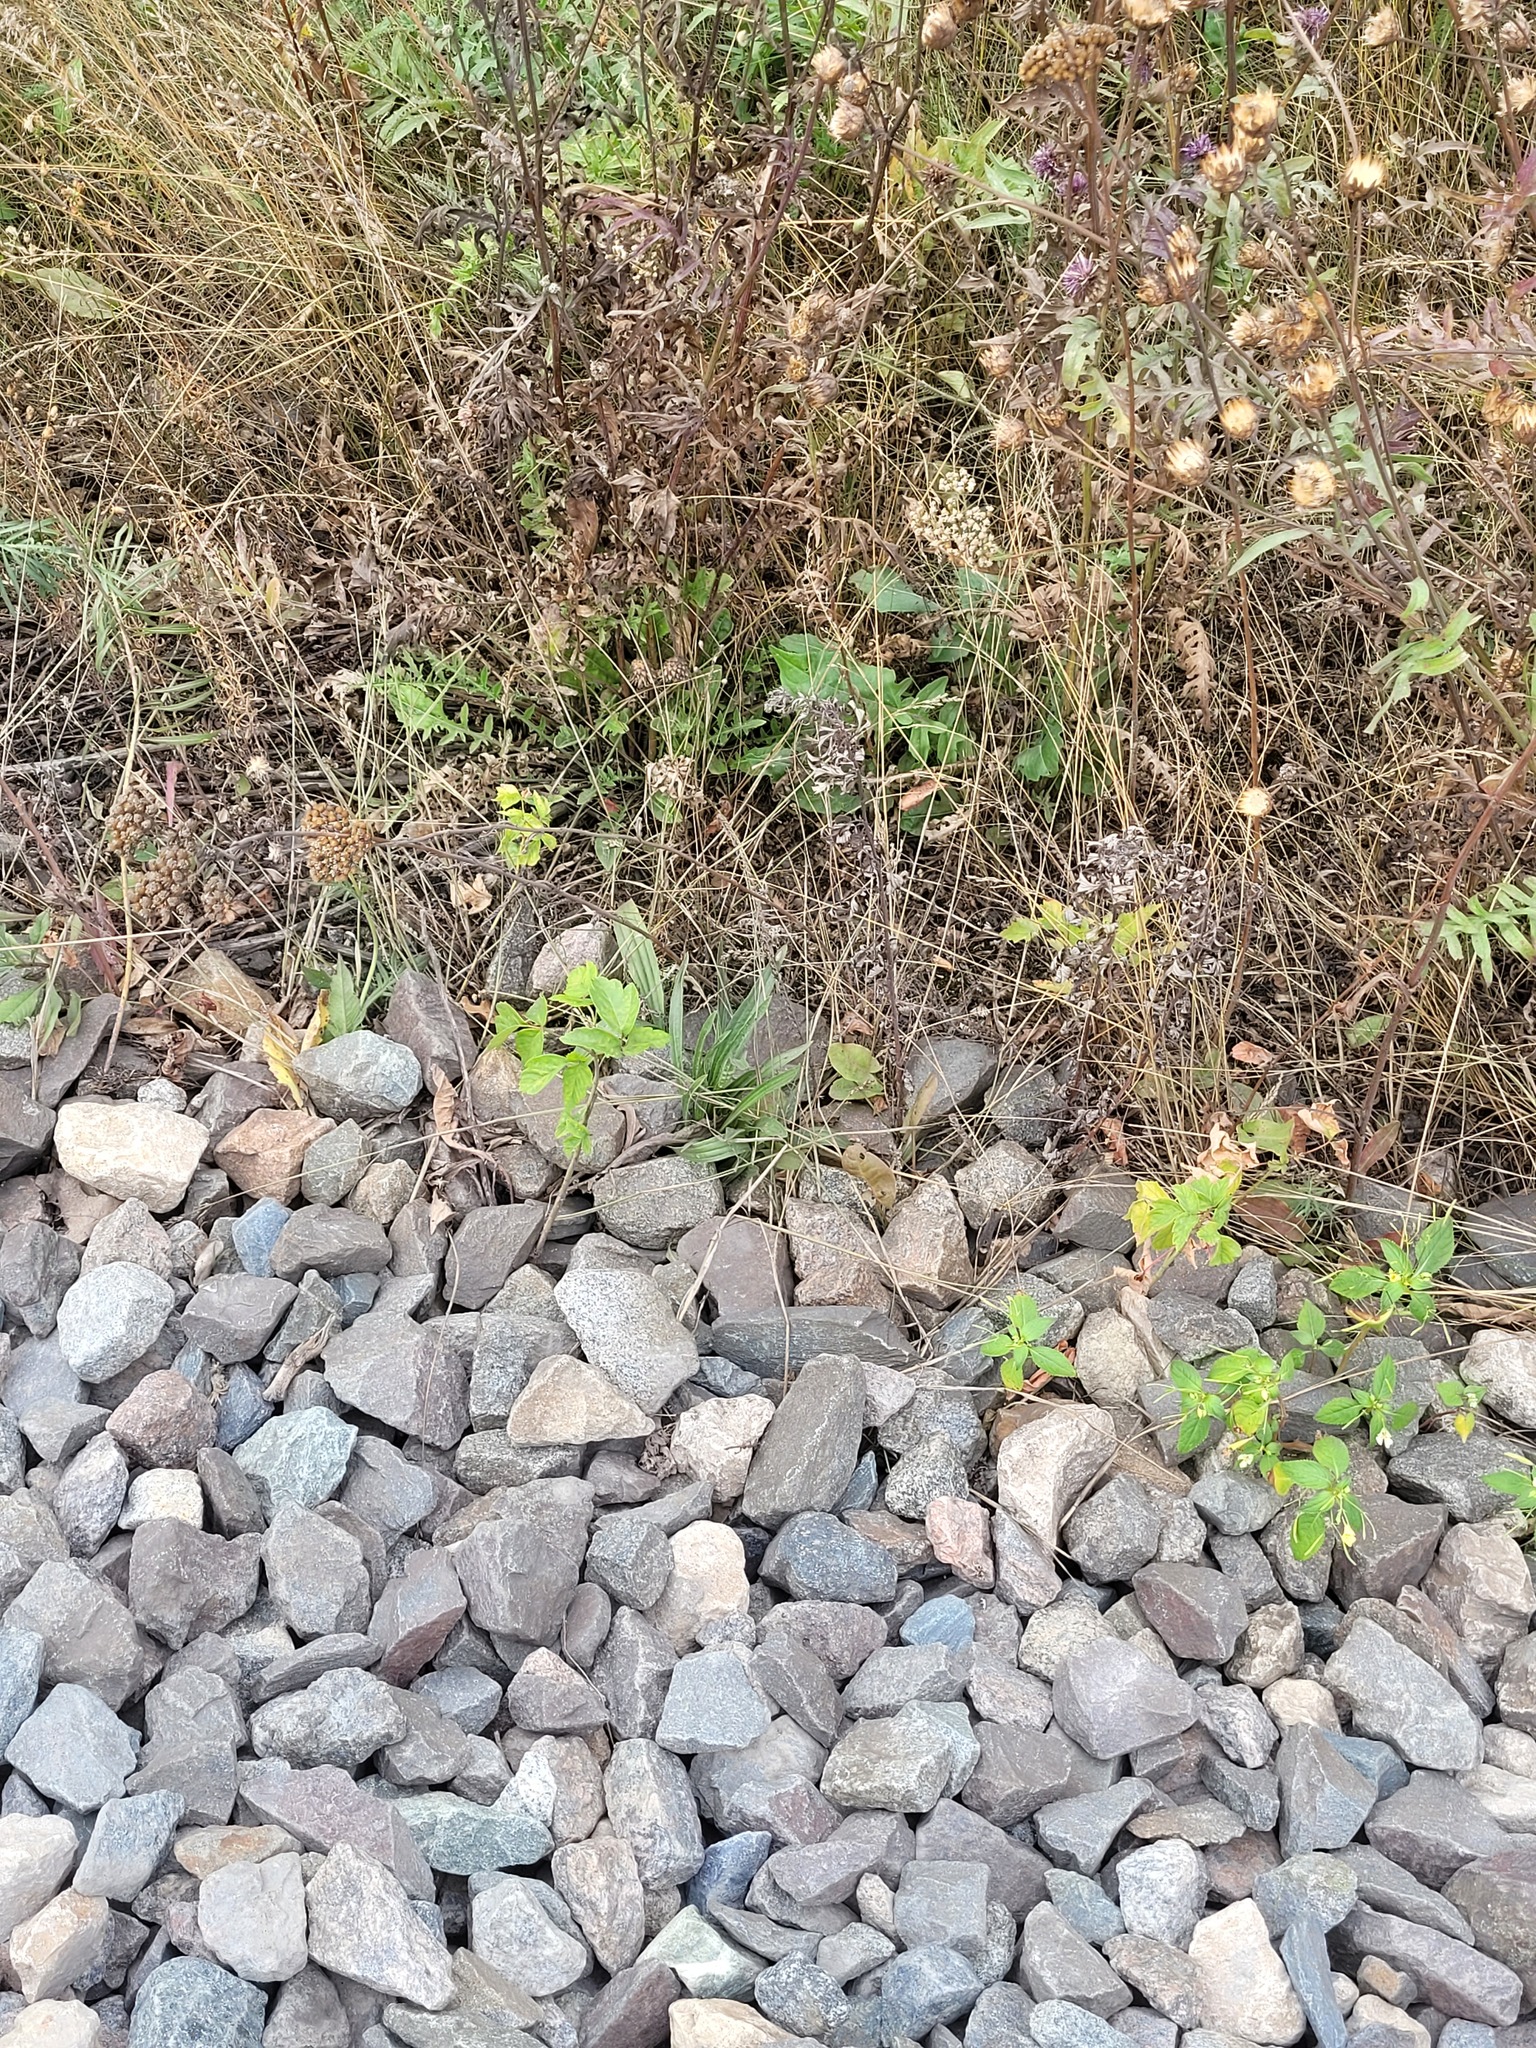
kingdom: Plantae
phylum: Tracheophyta
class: Magnoliopsida
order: Lamiales
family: Plantaginaceae
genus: Plantago
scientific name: Plantago lanceolata
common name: Ribwort plantain
